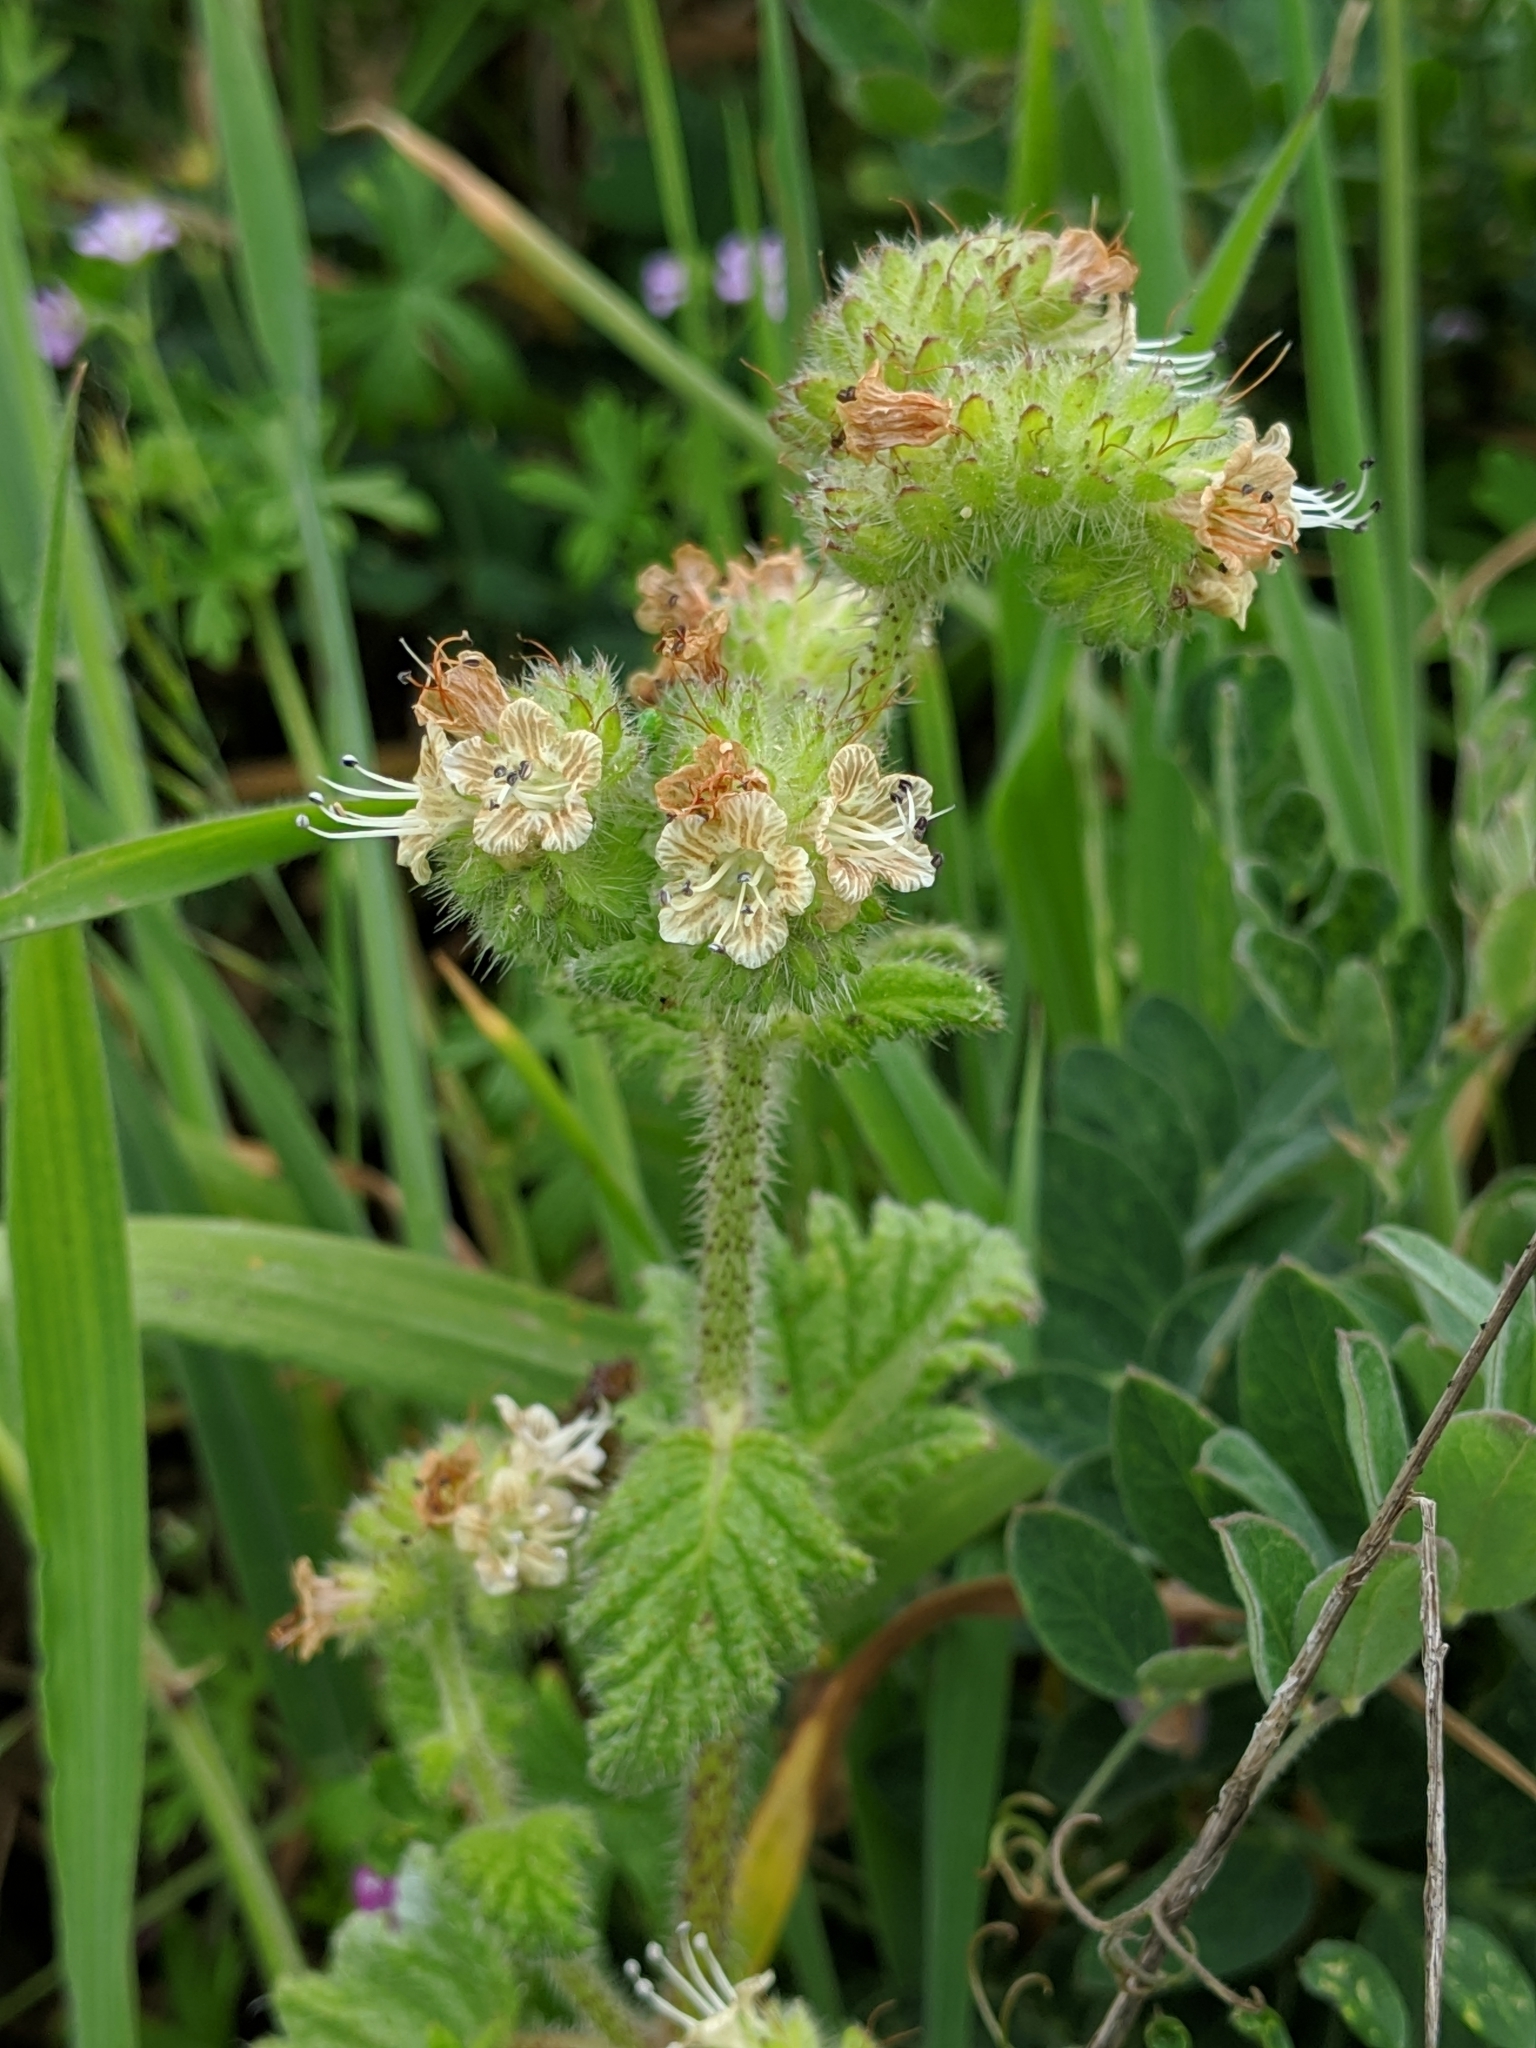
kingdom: Plantae
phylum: Tracheophyta
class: Magnoliopsida
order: Boraginales
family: Hydrophyllaceae
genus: Phacelia
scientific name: Phacelia malvifolia
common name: Mallow-leaf phacelia
